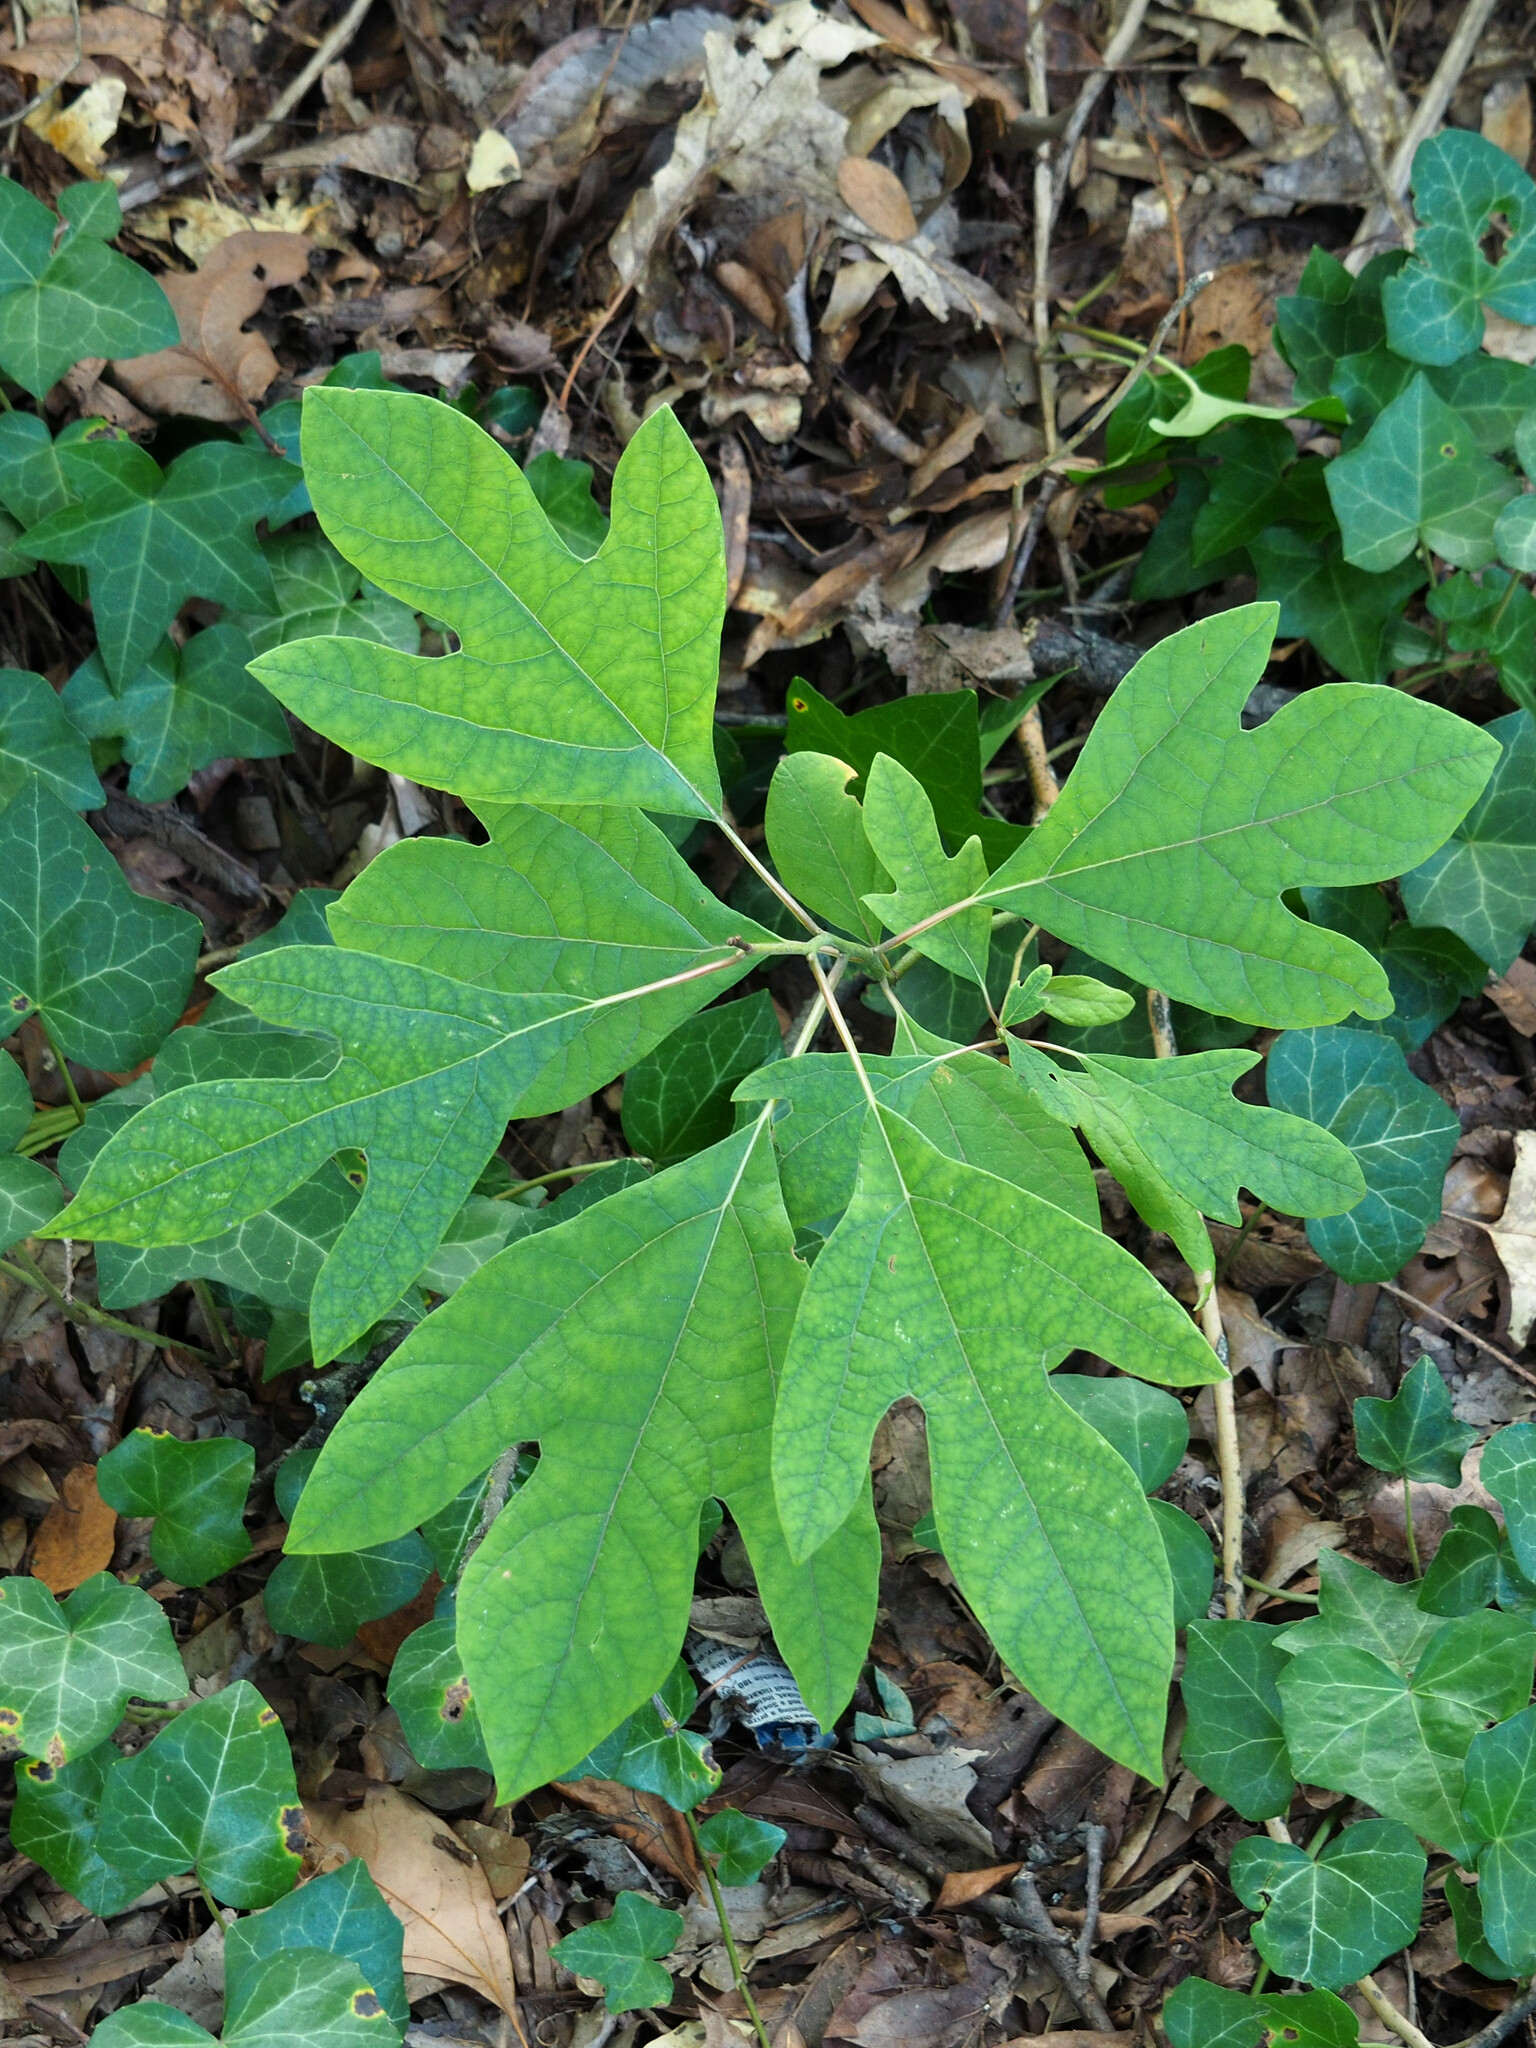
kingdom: Plantae
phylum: Tracheophyta
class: Magnoliopsida
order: Laurales
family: Lauraceae
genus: Sassafras
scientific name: Sassafras albidum
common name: Sassafras
